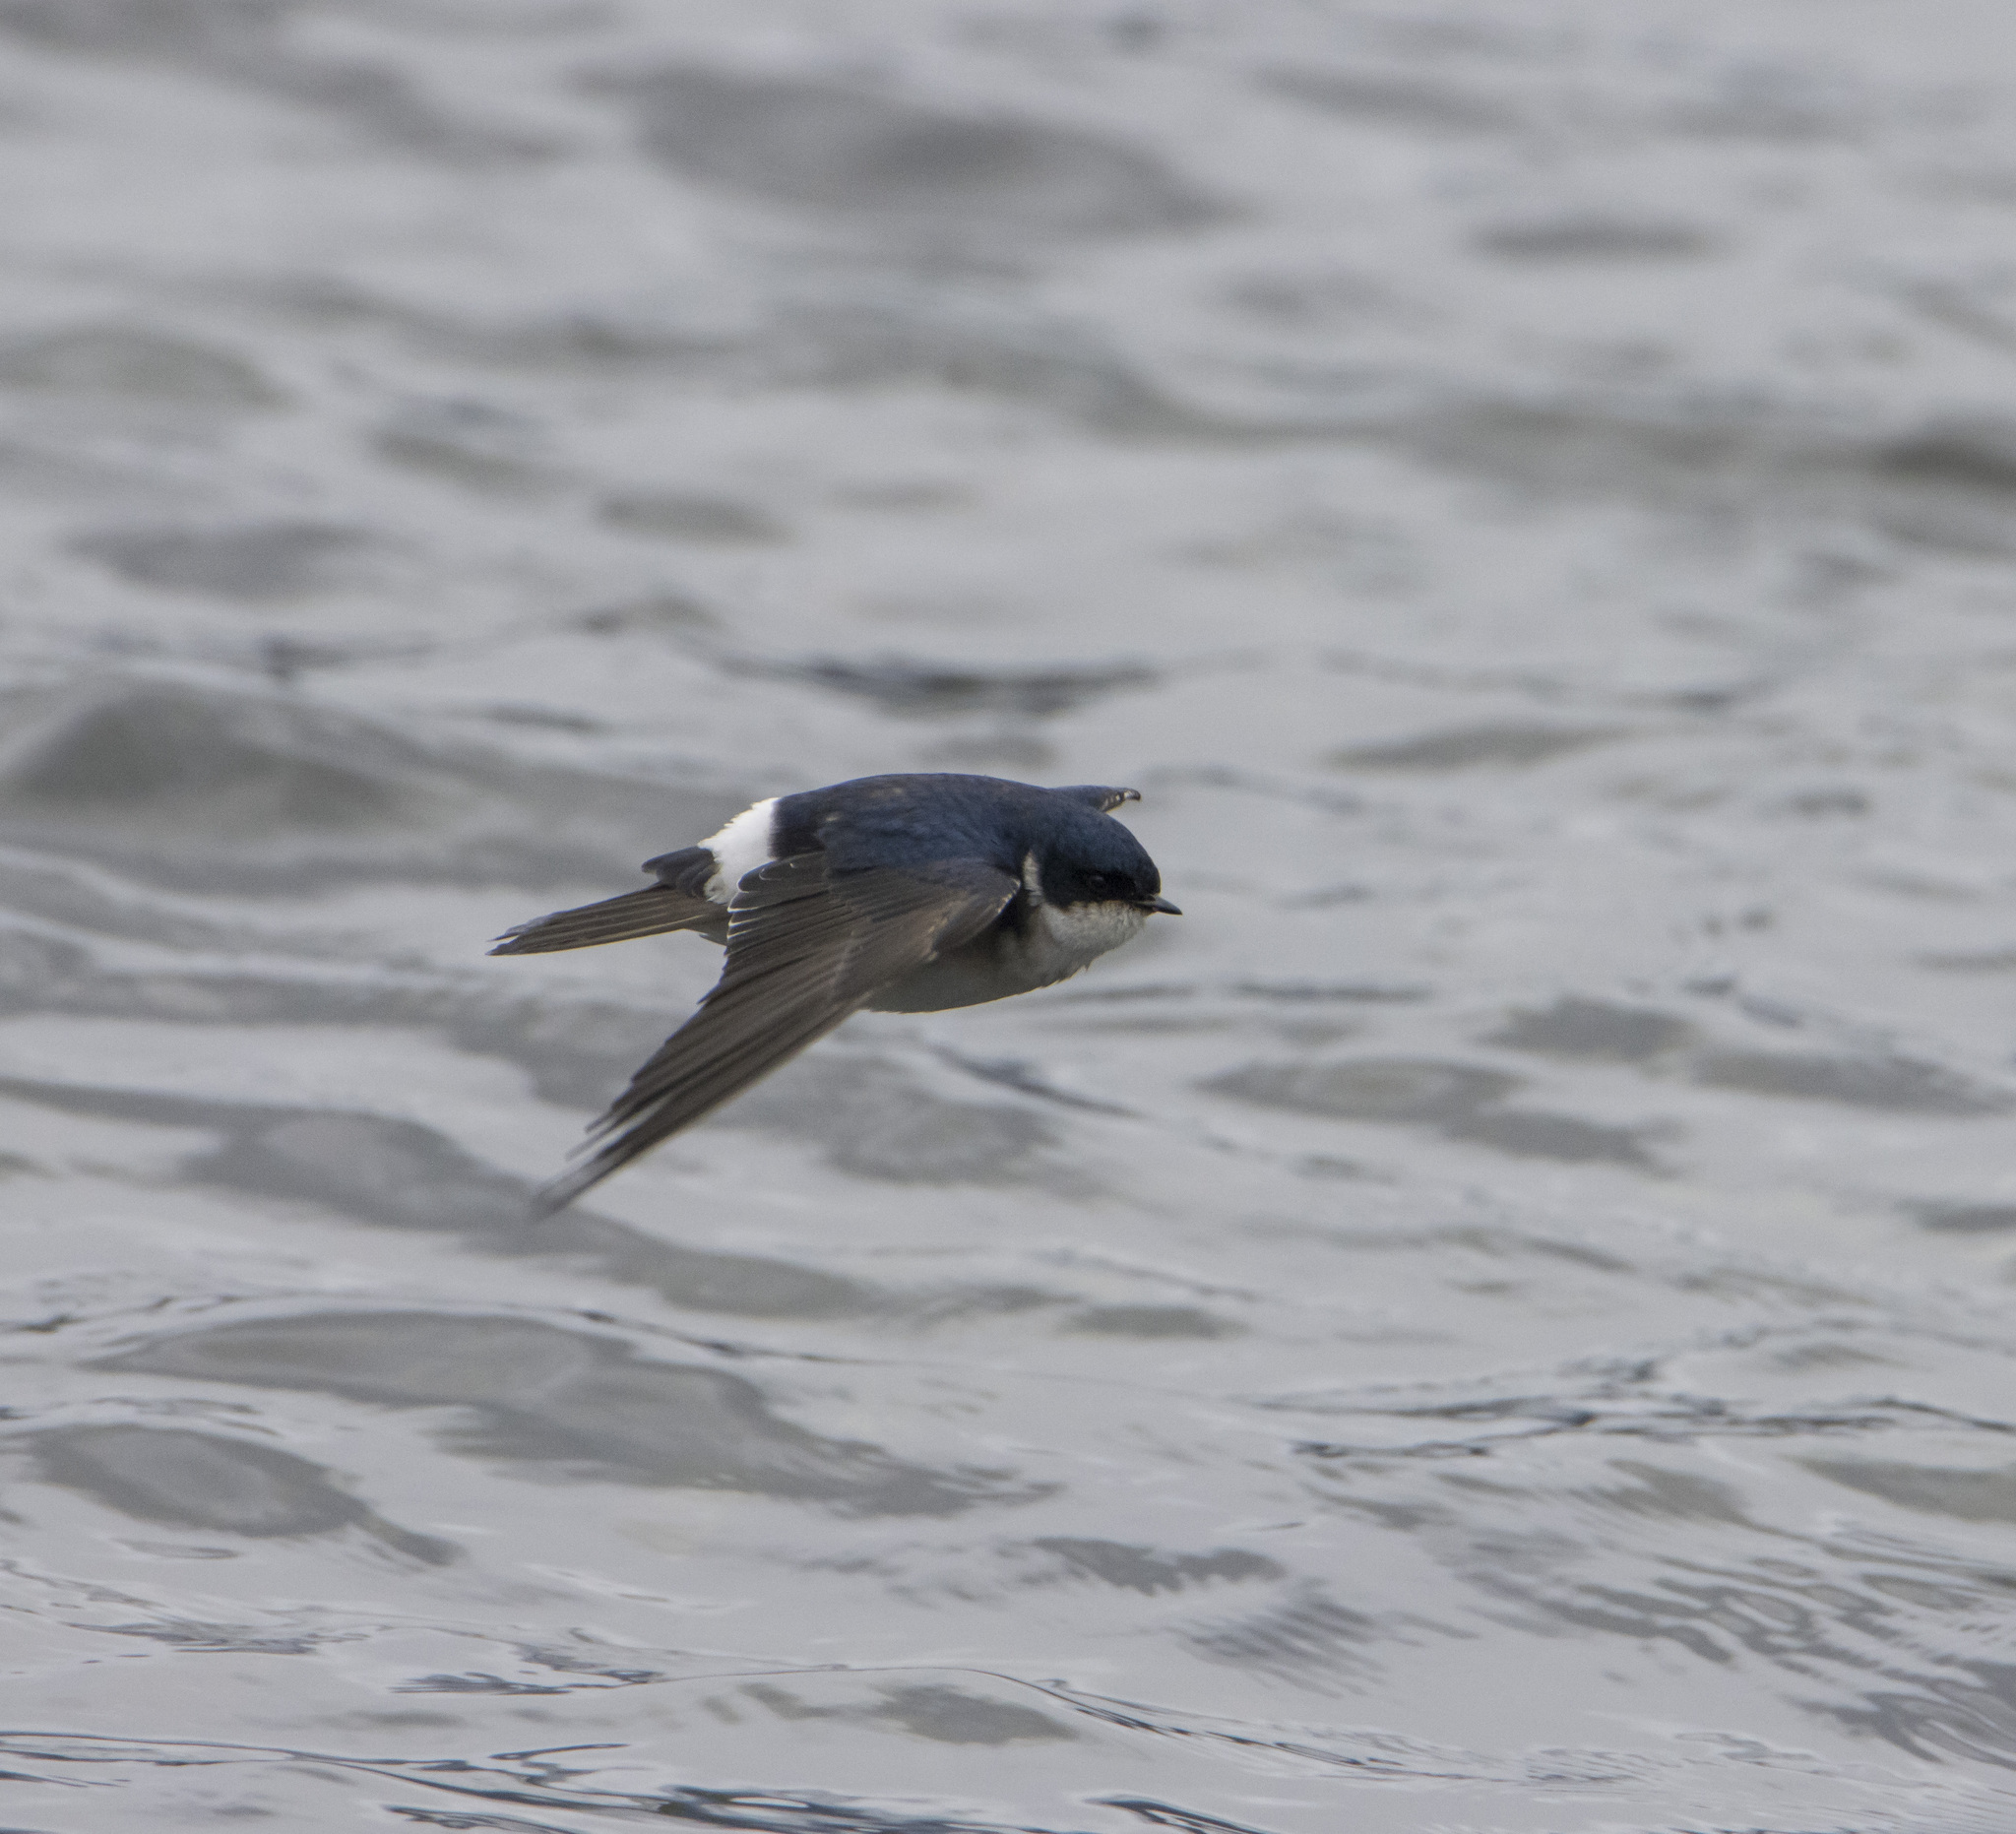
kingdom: Animalia
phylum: Chordata
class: Aves
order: Passeriformes
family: Hirundinidae
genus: Tachycineta
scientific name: Tachycineta leucopyga
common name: Chilean swallow
